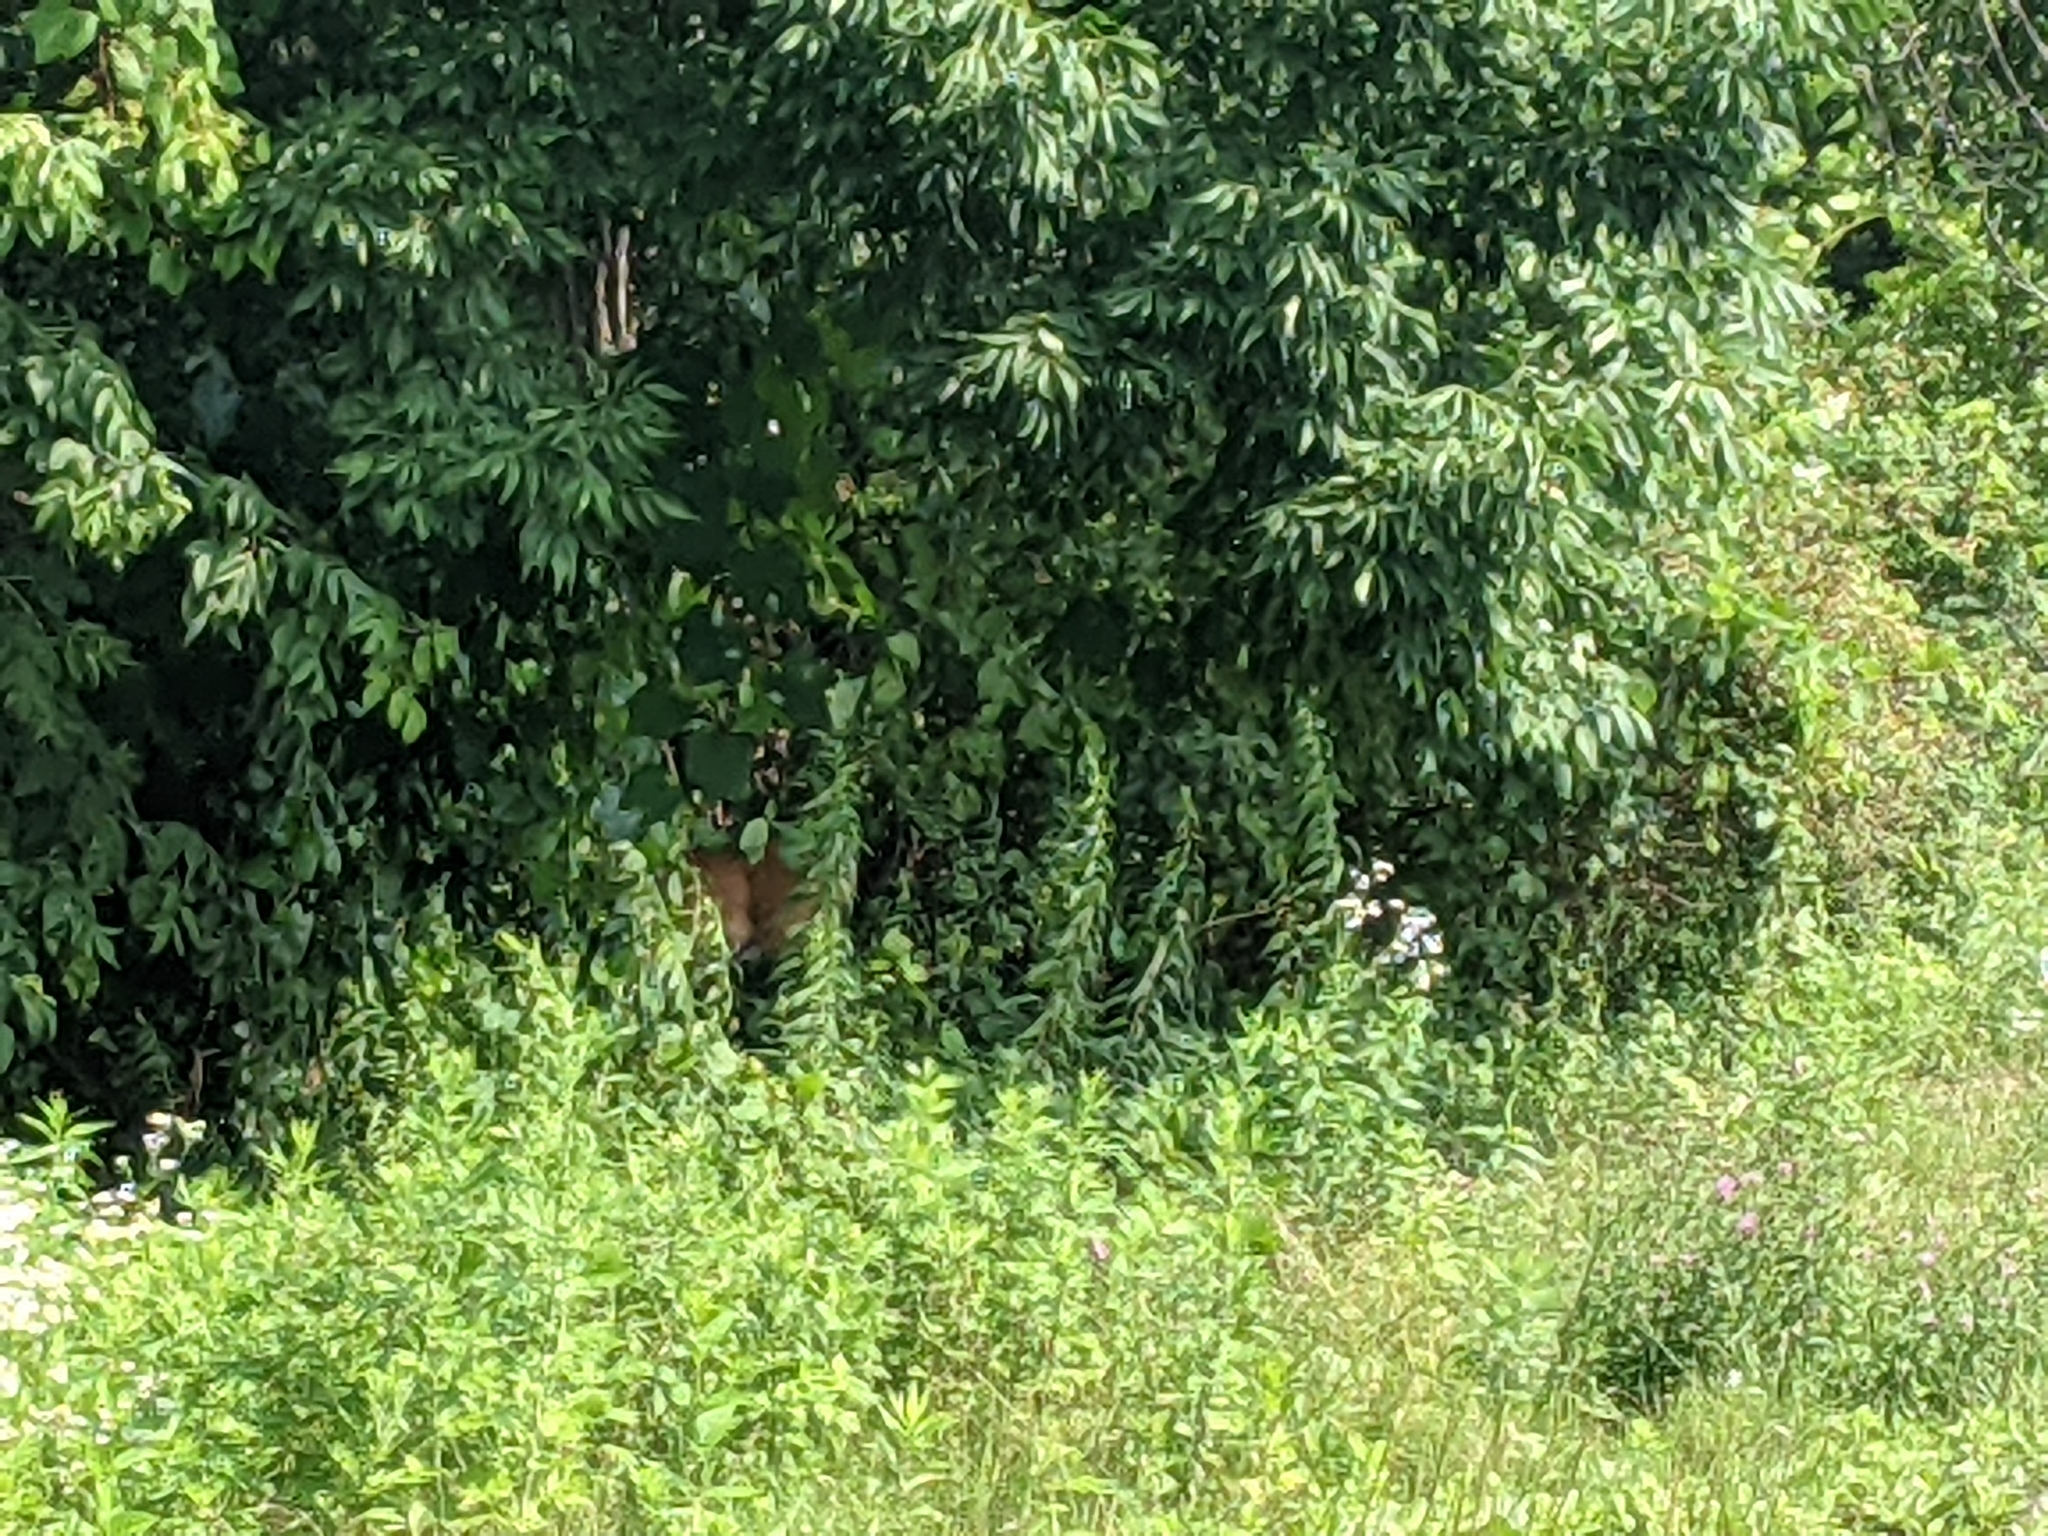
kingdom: Animalia
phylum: Chordata
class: Mammalia
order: Artiodactyla
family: Cervidae
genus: Odocoileus
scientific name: Odocoileus virginianus
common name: White-tailed deer
